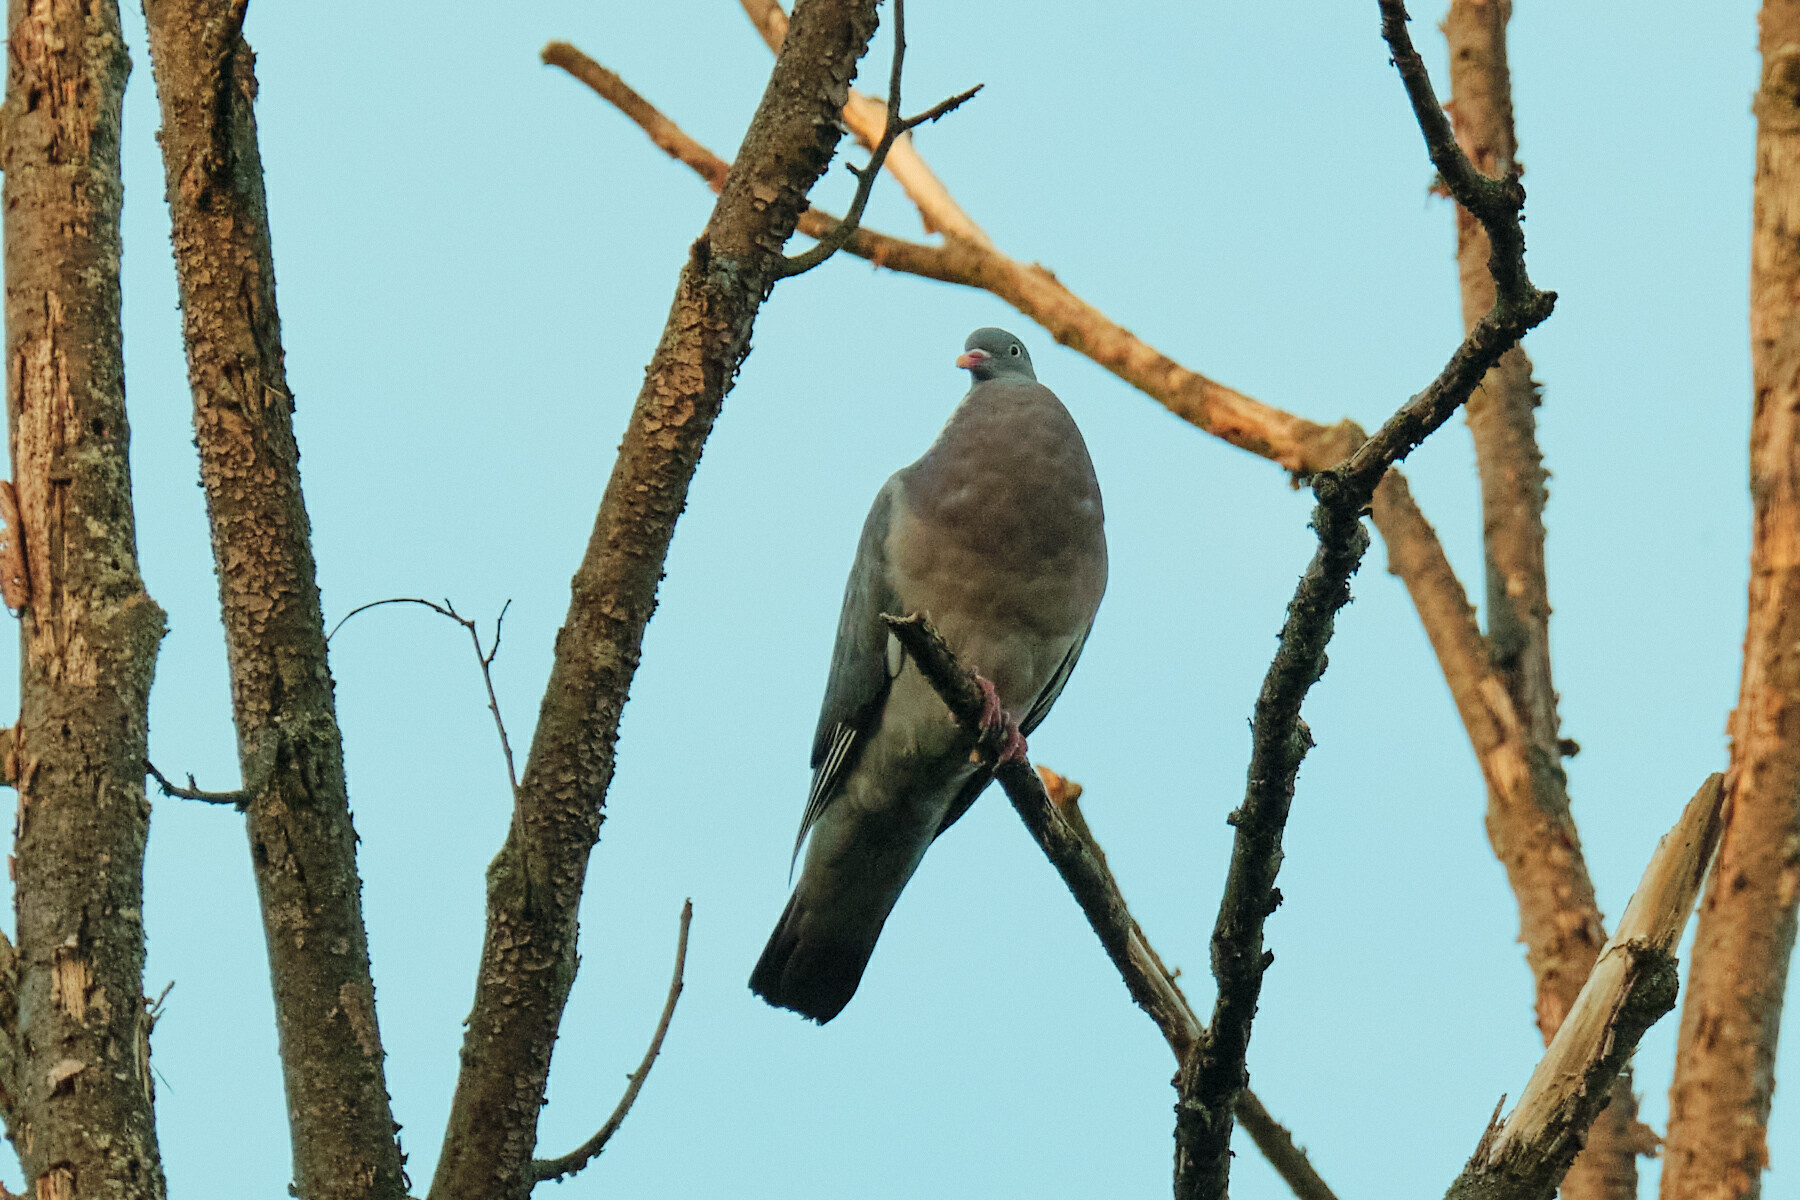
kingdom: Animalia
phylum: Chordata
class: Aves
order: Columbiformes
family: Columbidae
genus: Columba
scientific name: Columba palumbus
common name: Common wood pigeon
